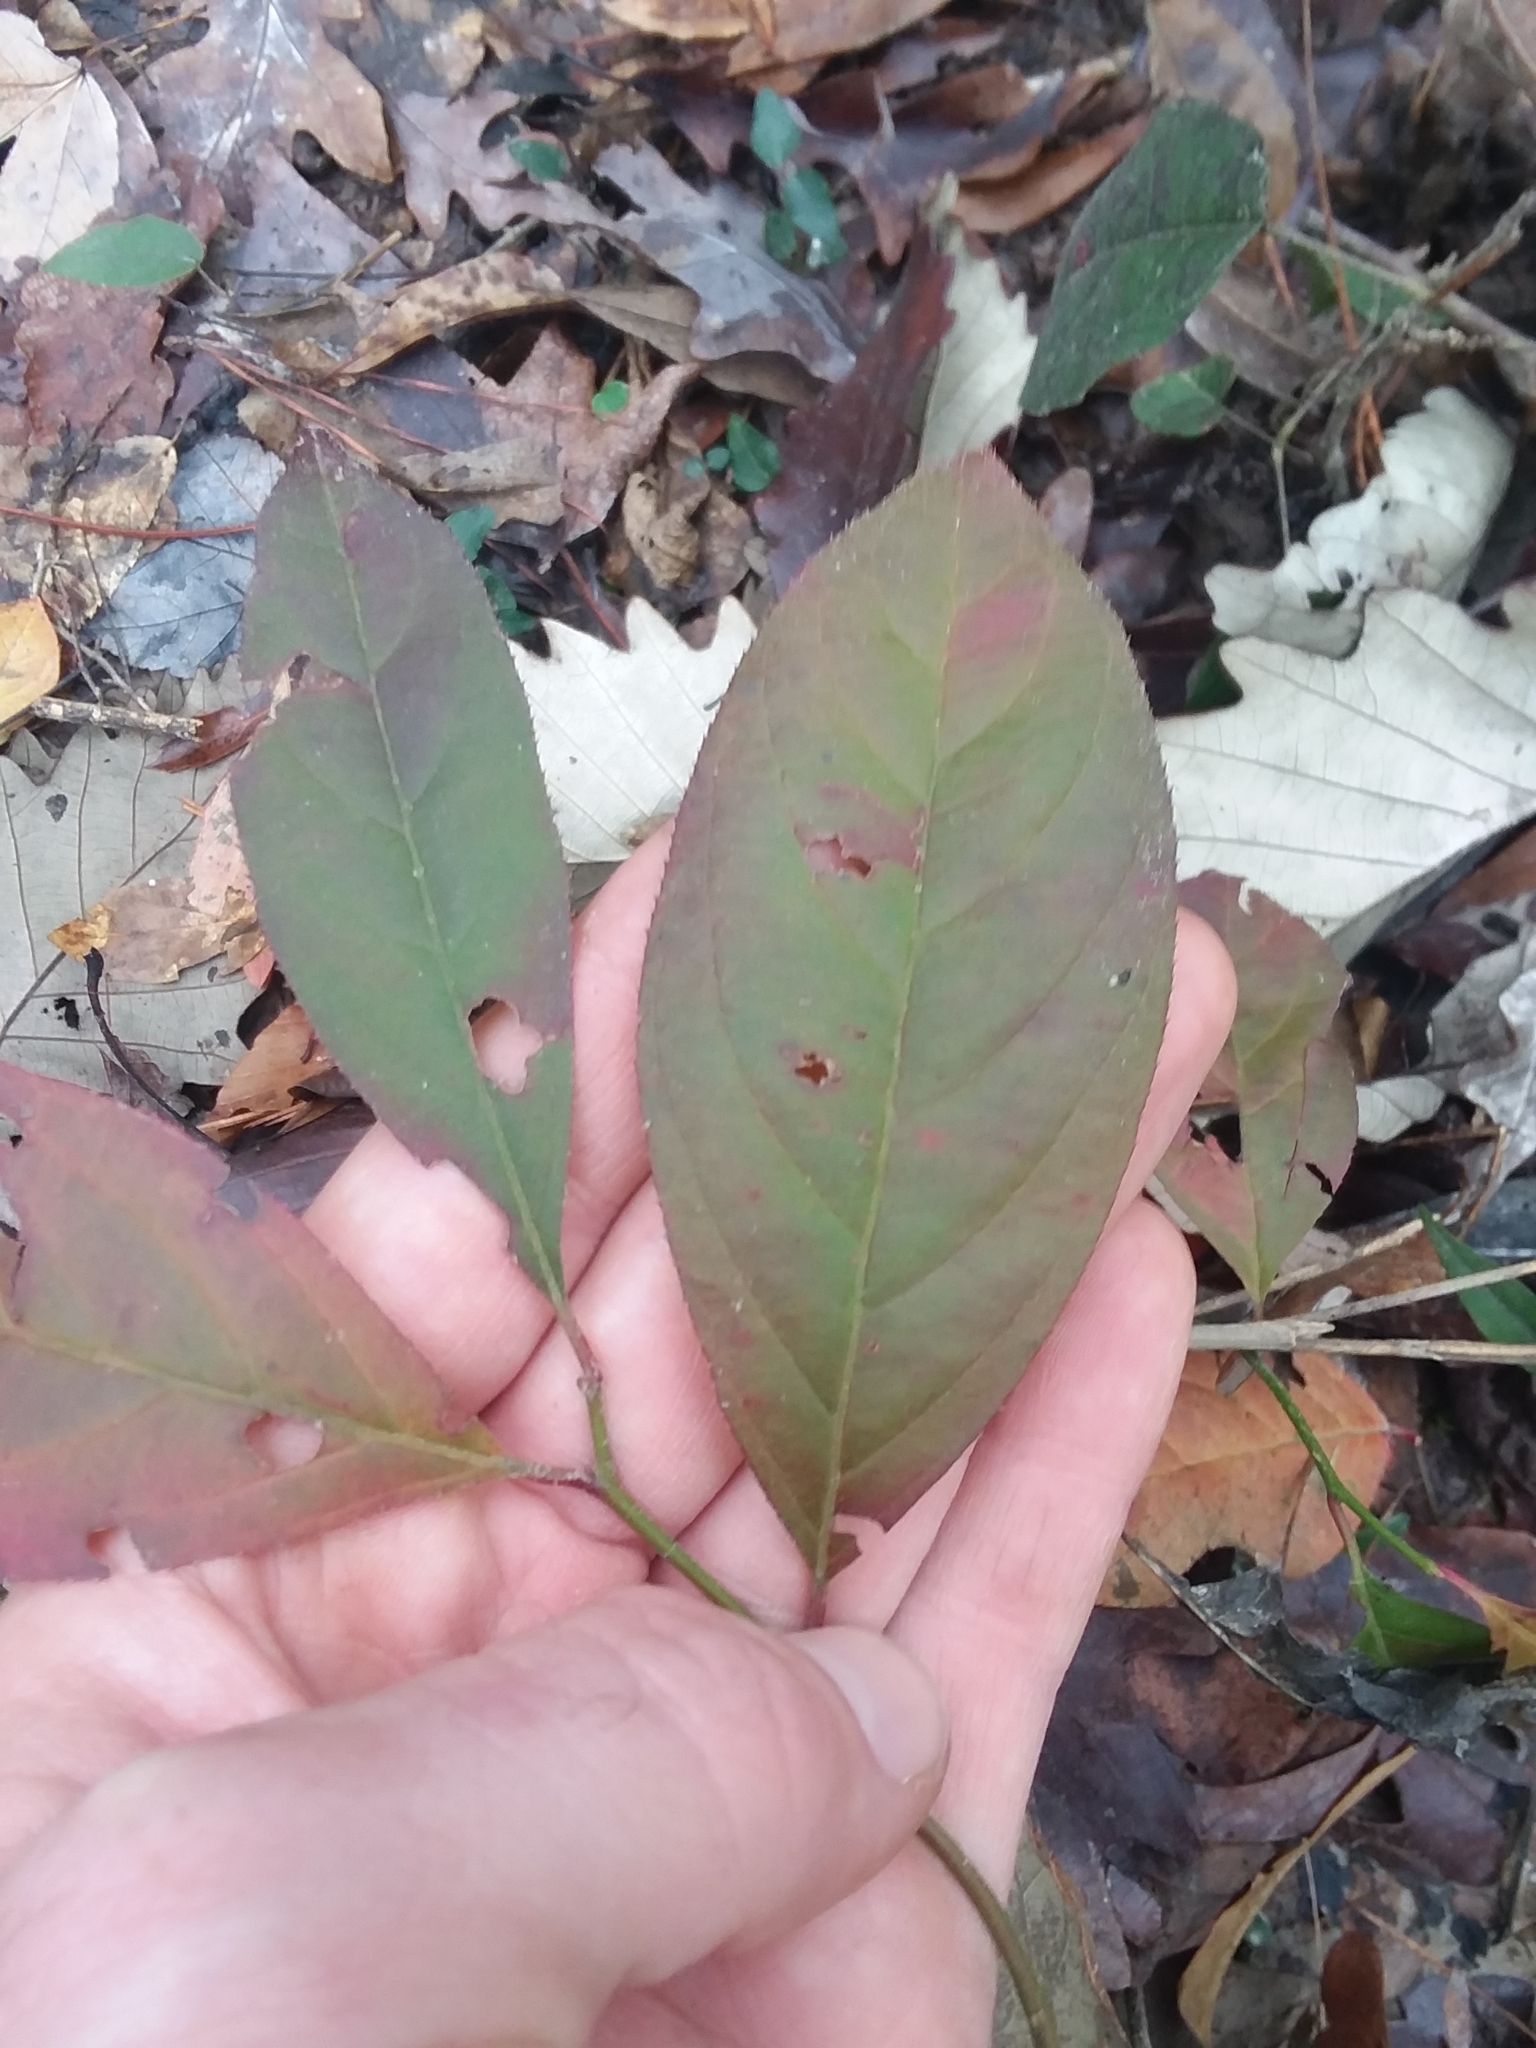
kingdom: Plantae
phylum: Tracheophyta
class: Magnoliopsida
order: Saxifragales
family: Iteaceae
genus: Itea
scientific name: Itea virginica
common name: Sweetspire
